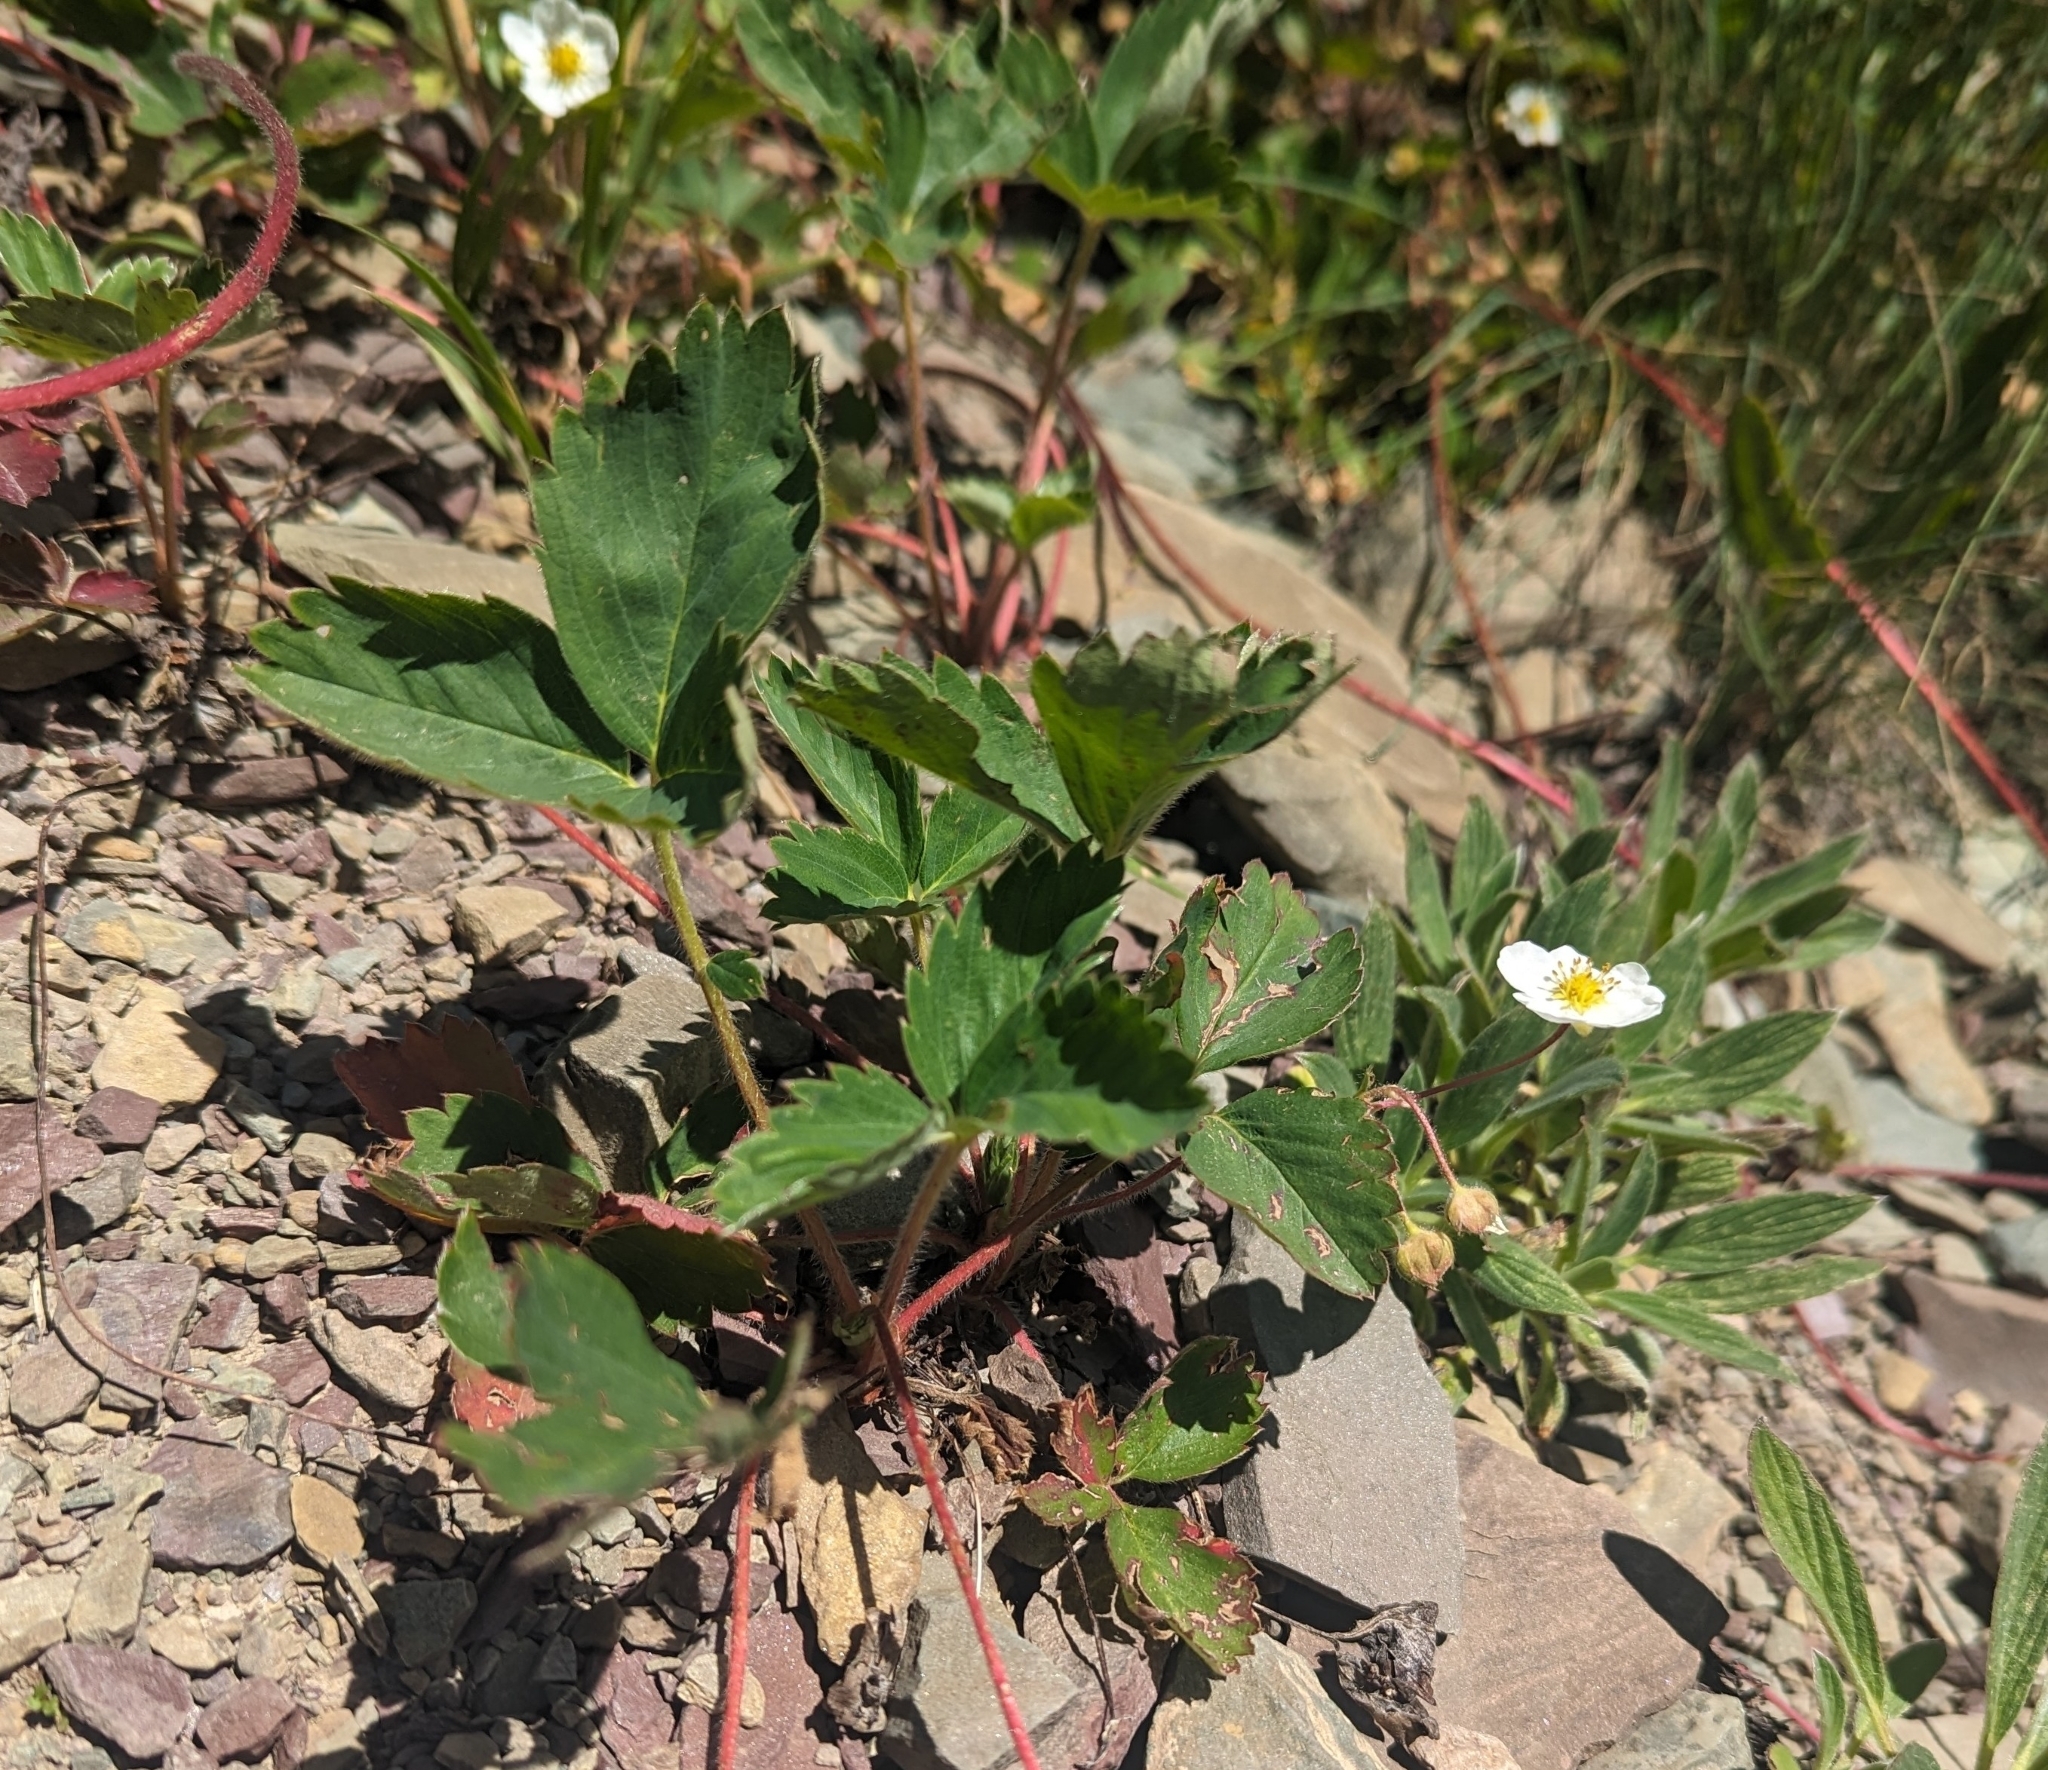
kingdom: Plantae
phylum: Tracheophyta
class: Magnoliopsida
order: Rosales
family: Rosaceae
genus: Fragaria
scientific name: Fragaria virginiana
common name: Thickleaved wild strawberry
